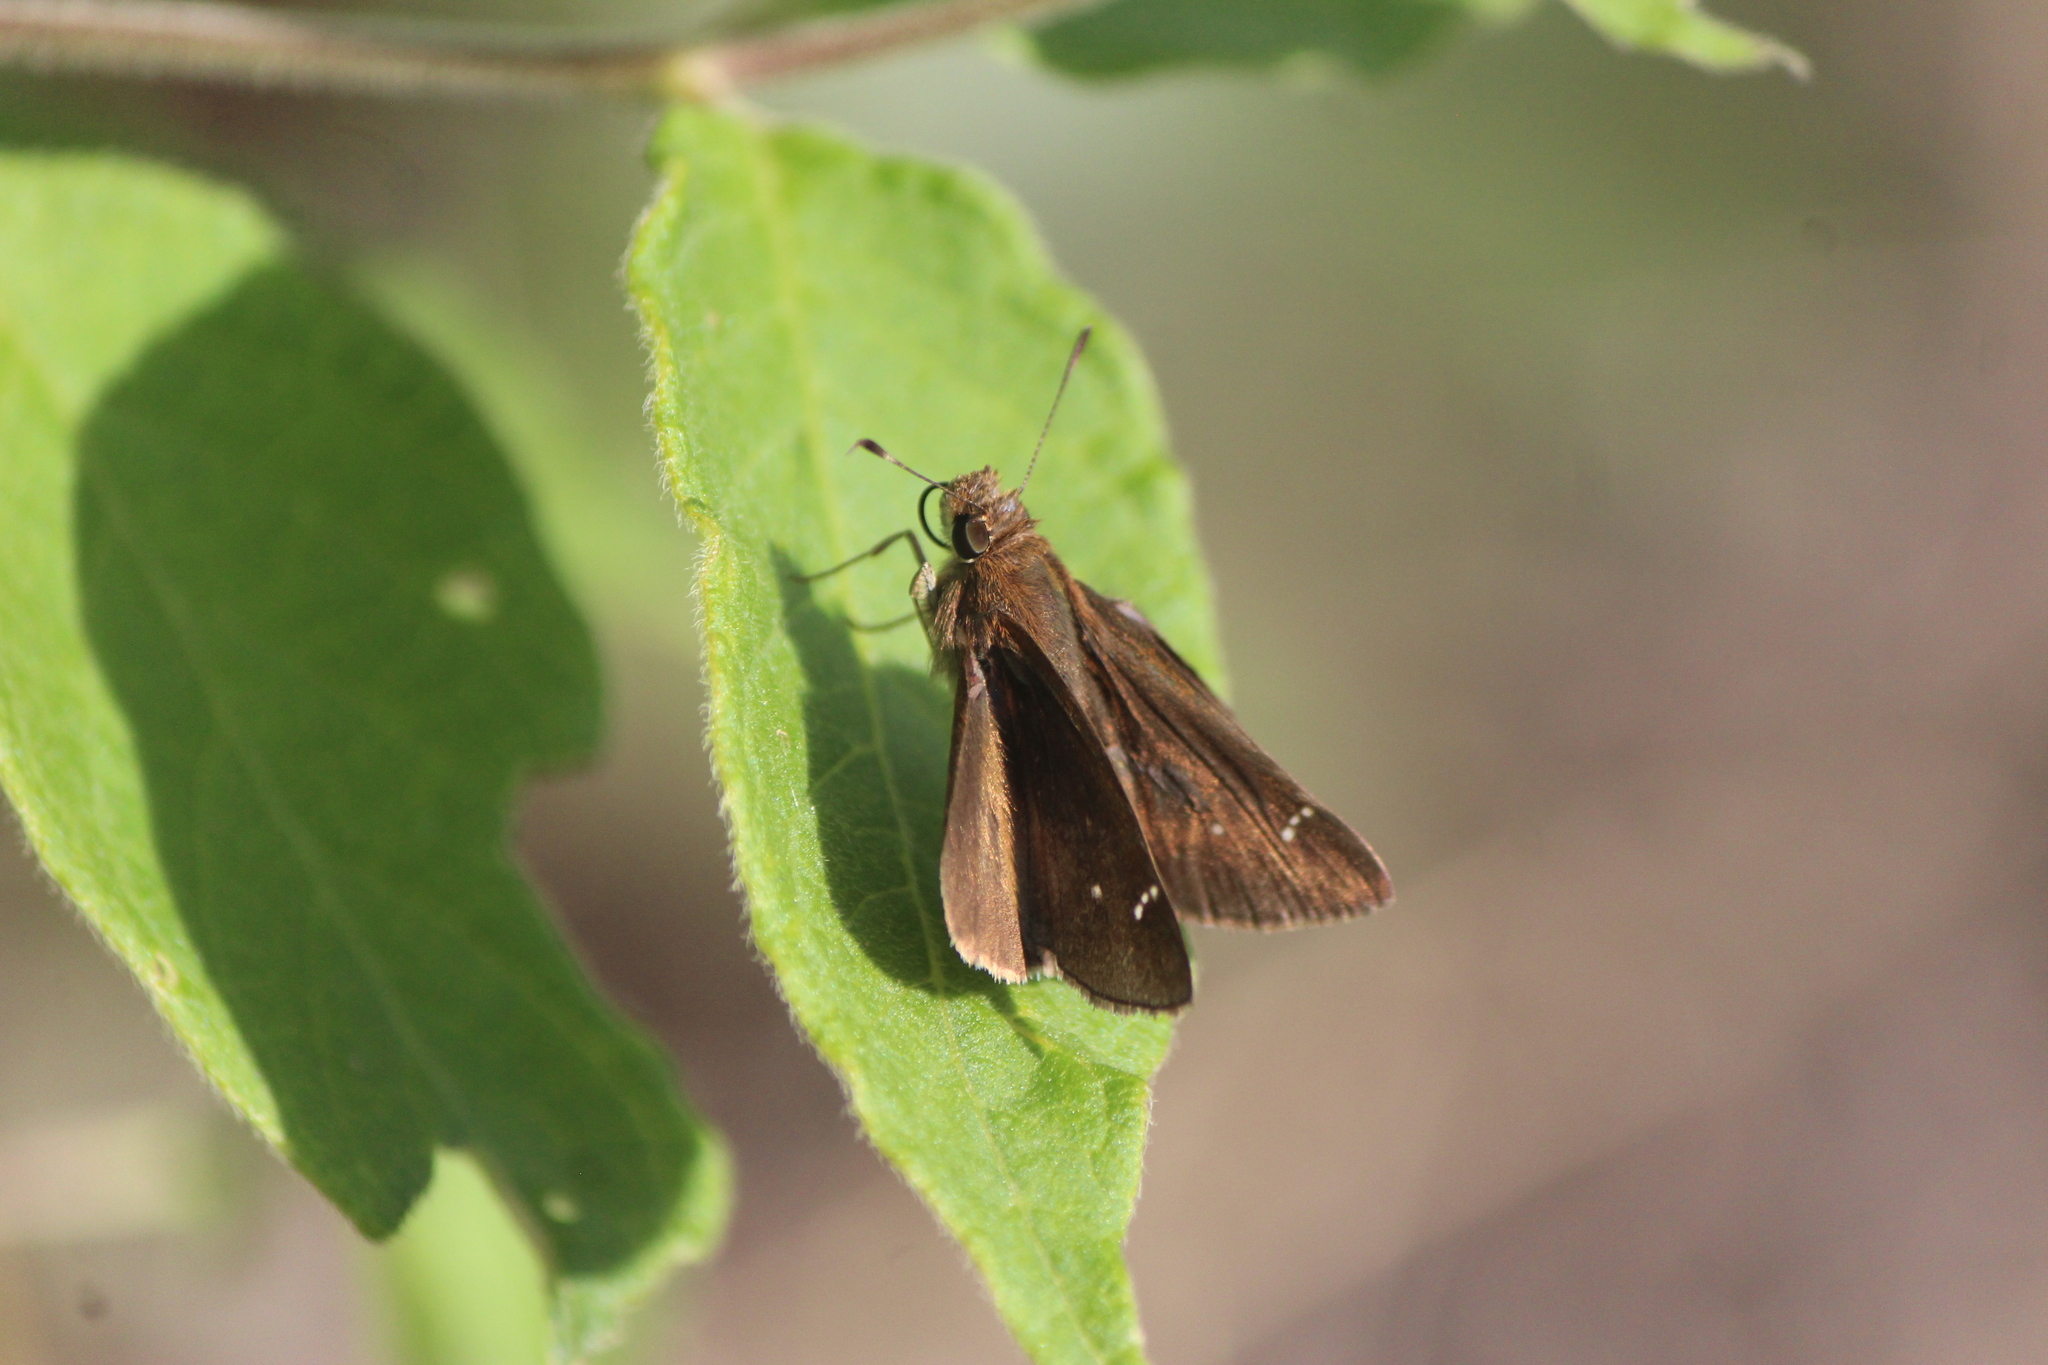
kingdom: Animalia
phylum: Arthropoda
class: Insecta
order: Lepidoptera
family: Hesperiidae
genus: Lerema
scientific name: Lerema accius
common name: Clouded skipper
